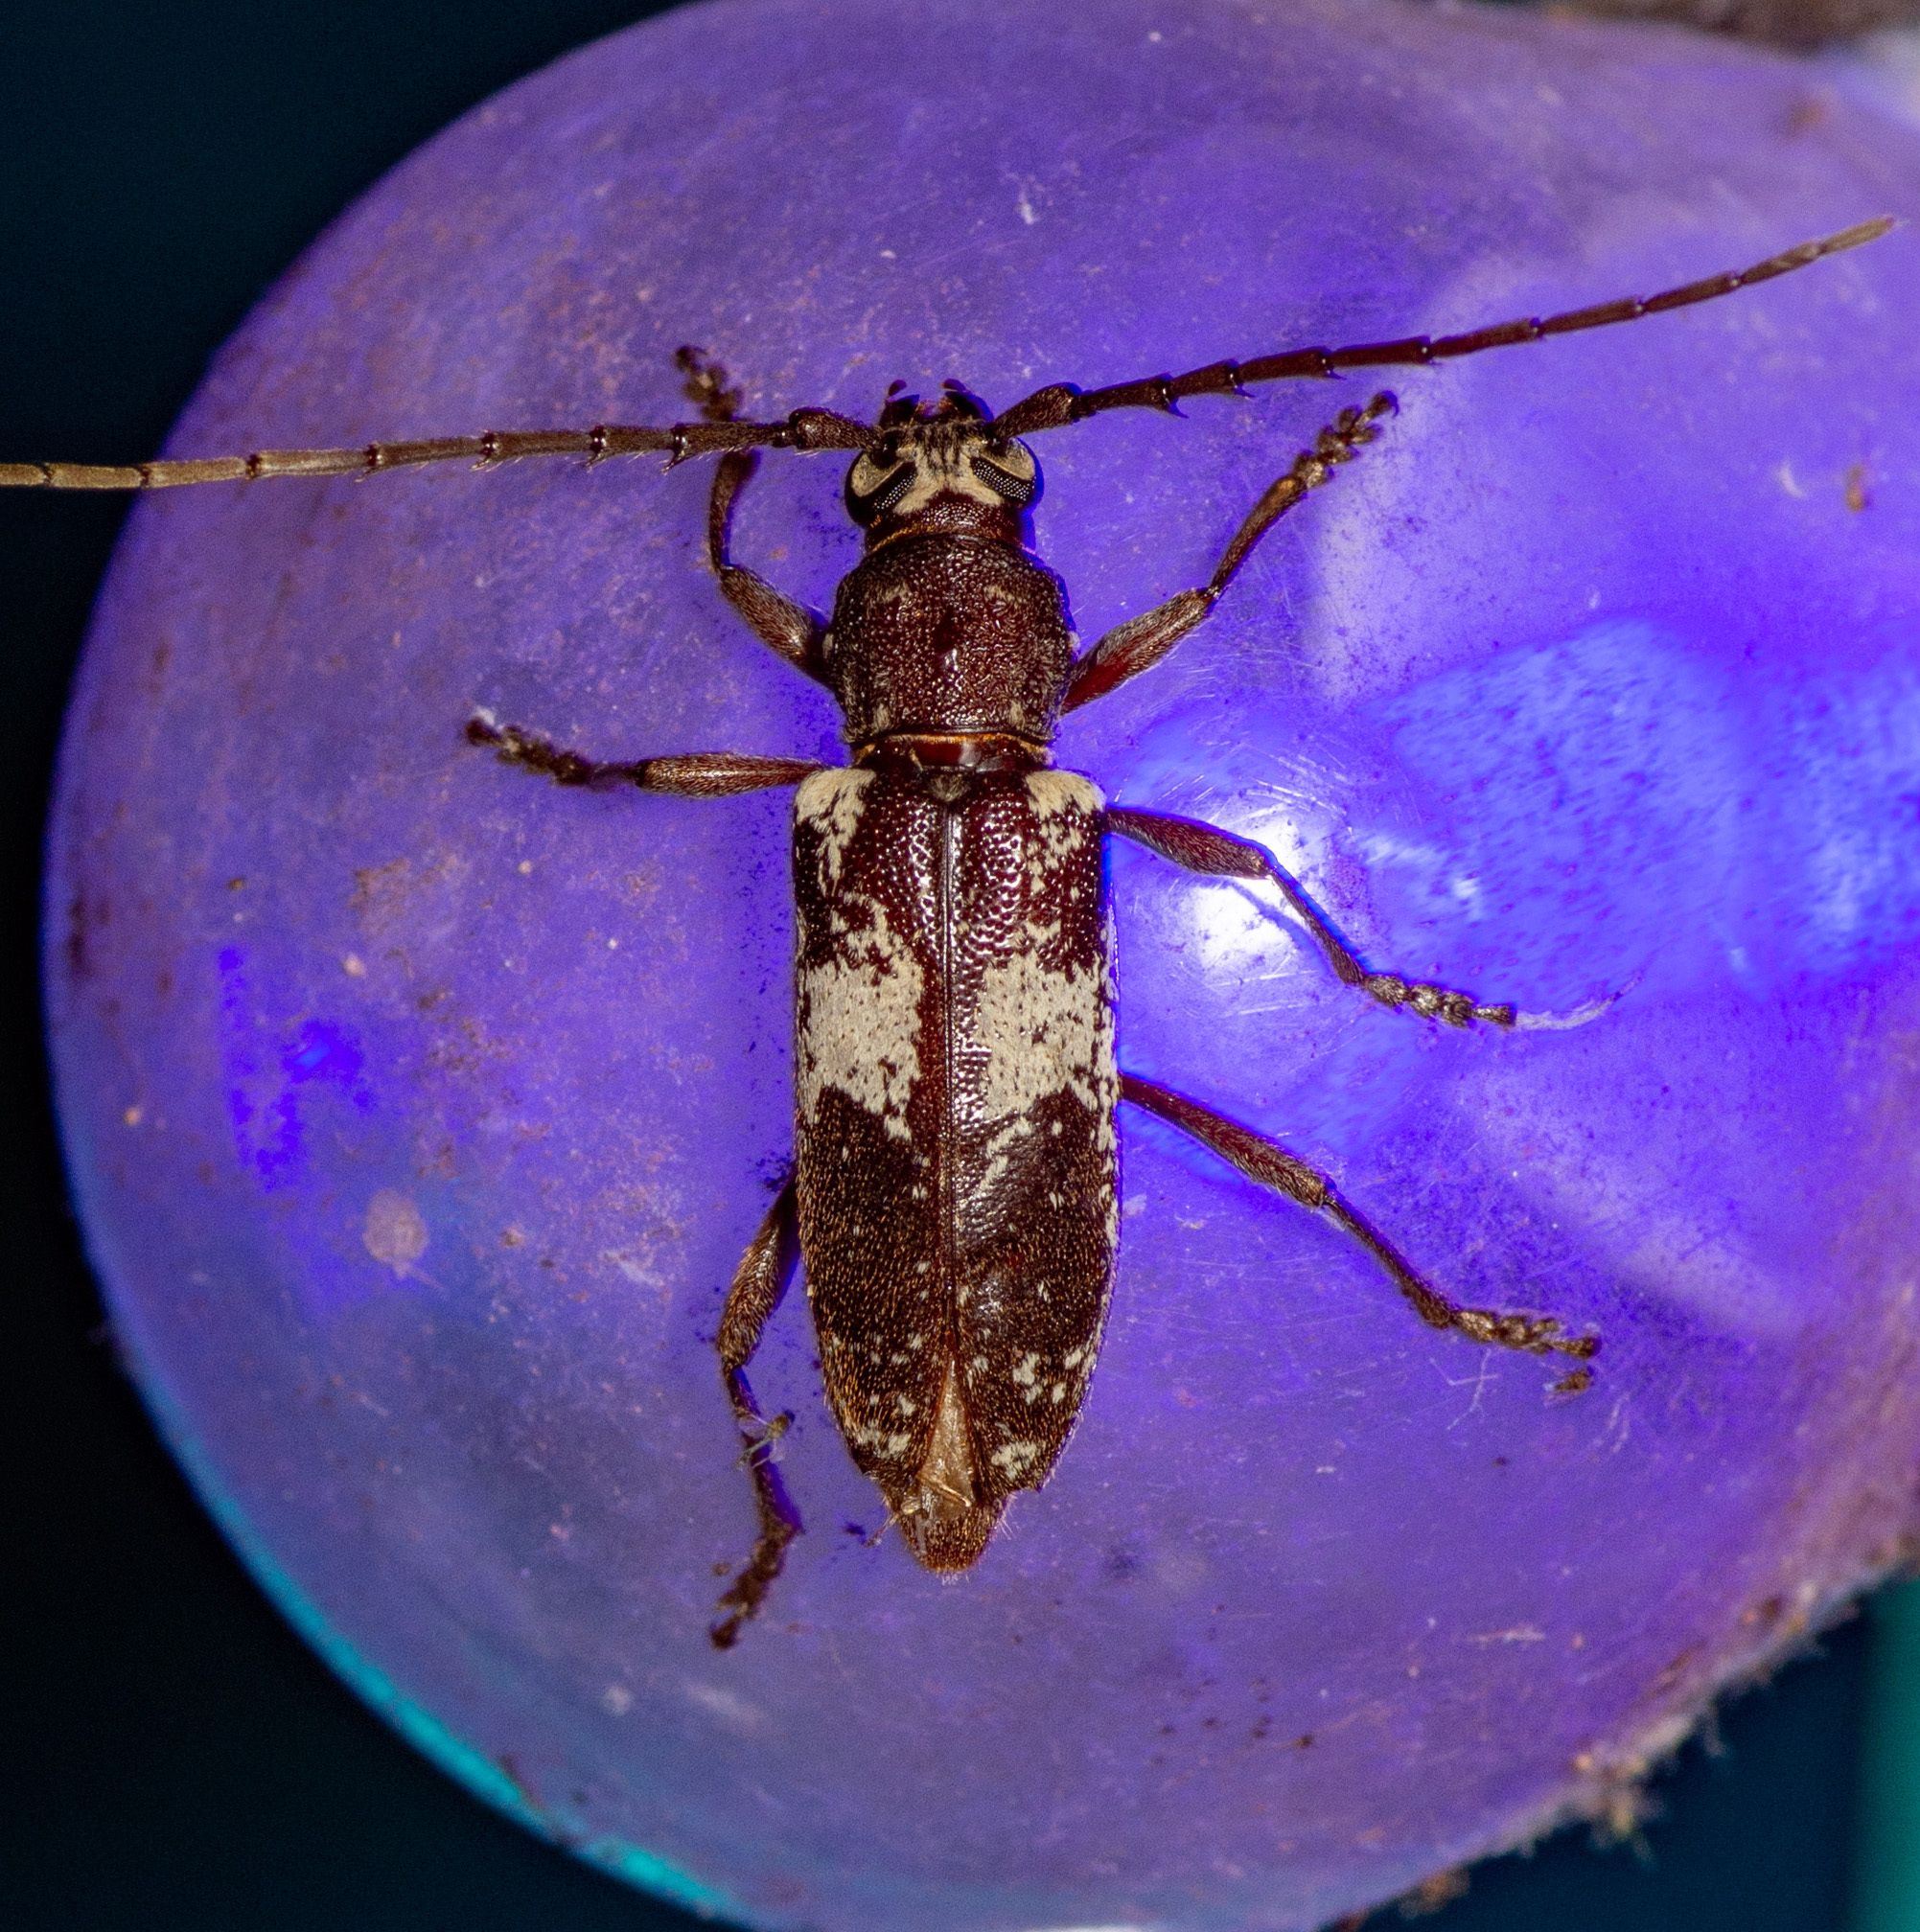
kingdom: Animalia
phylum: Arthropoda
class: Insecta
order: Coleoptera
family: Cerambycidae
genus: Enaphalodes
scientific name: Enaphalodes taeniatus
